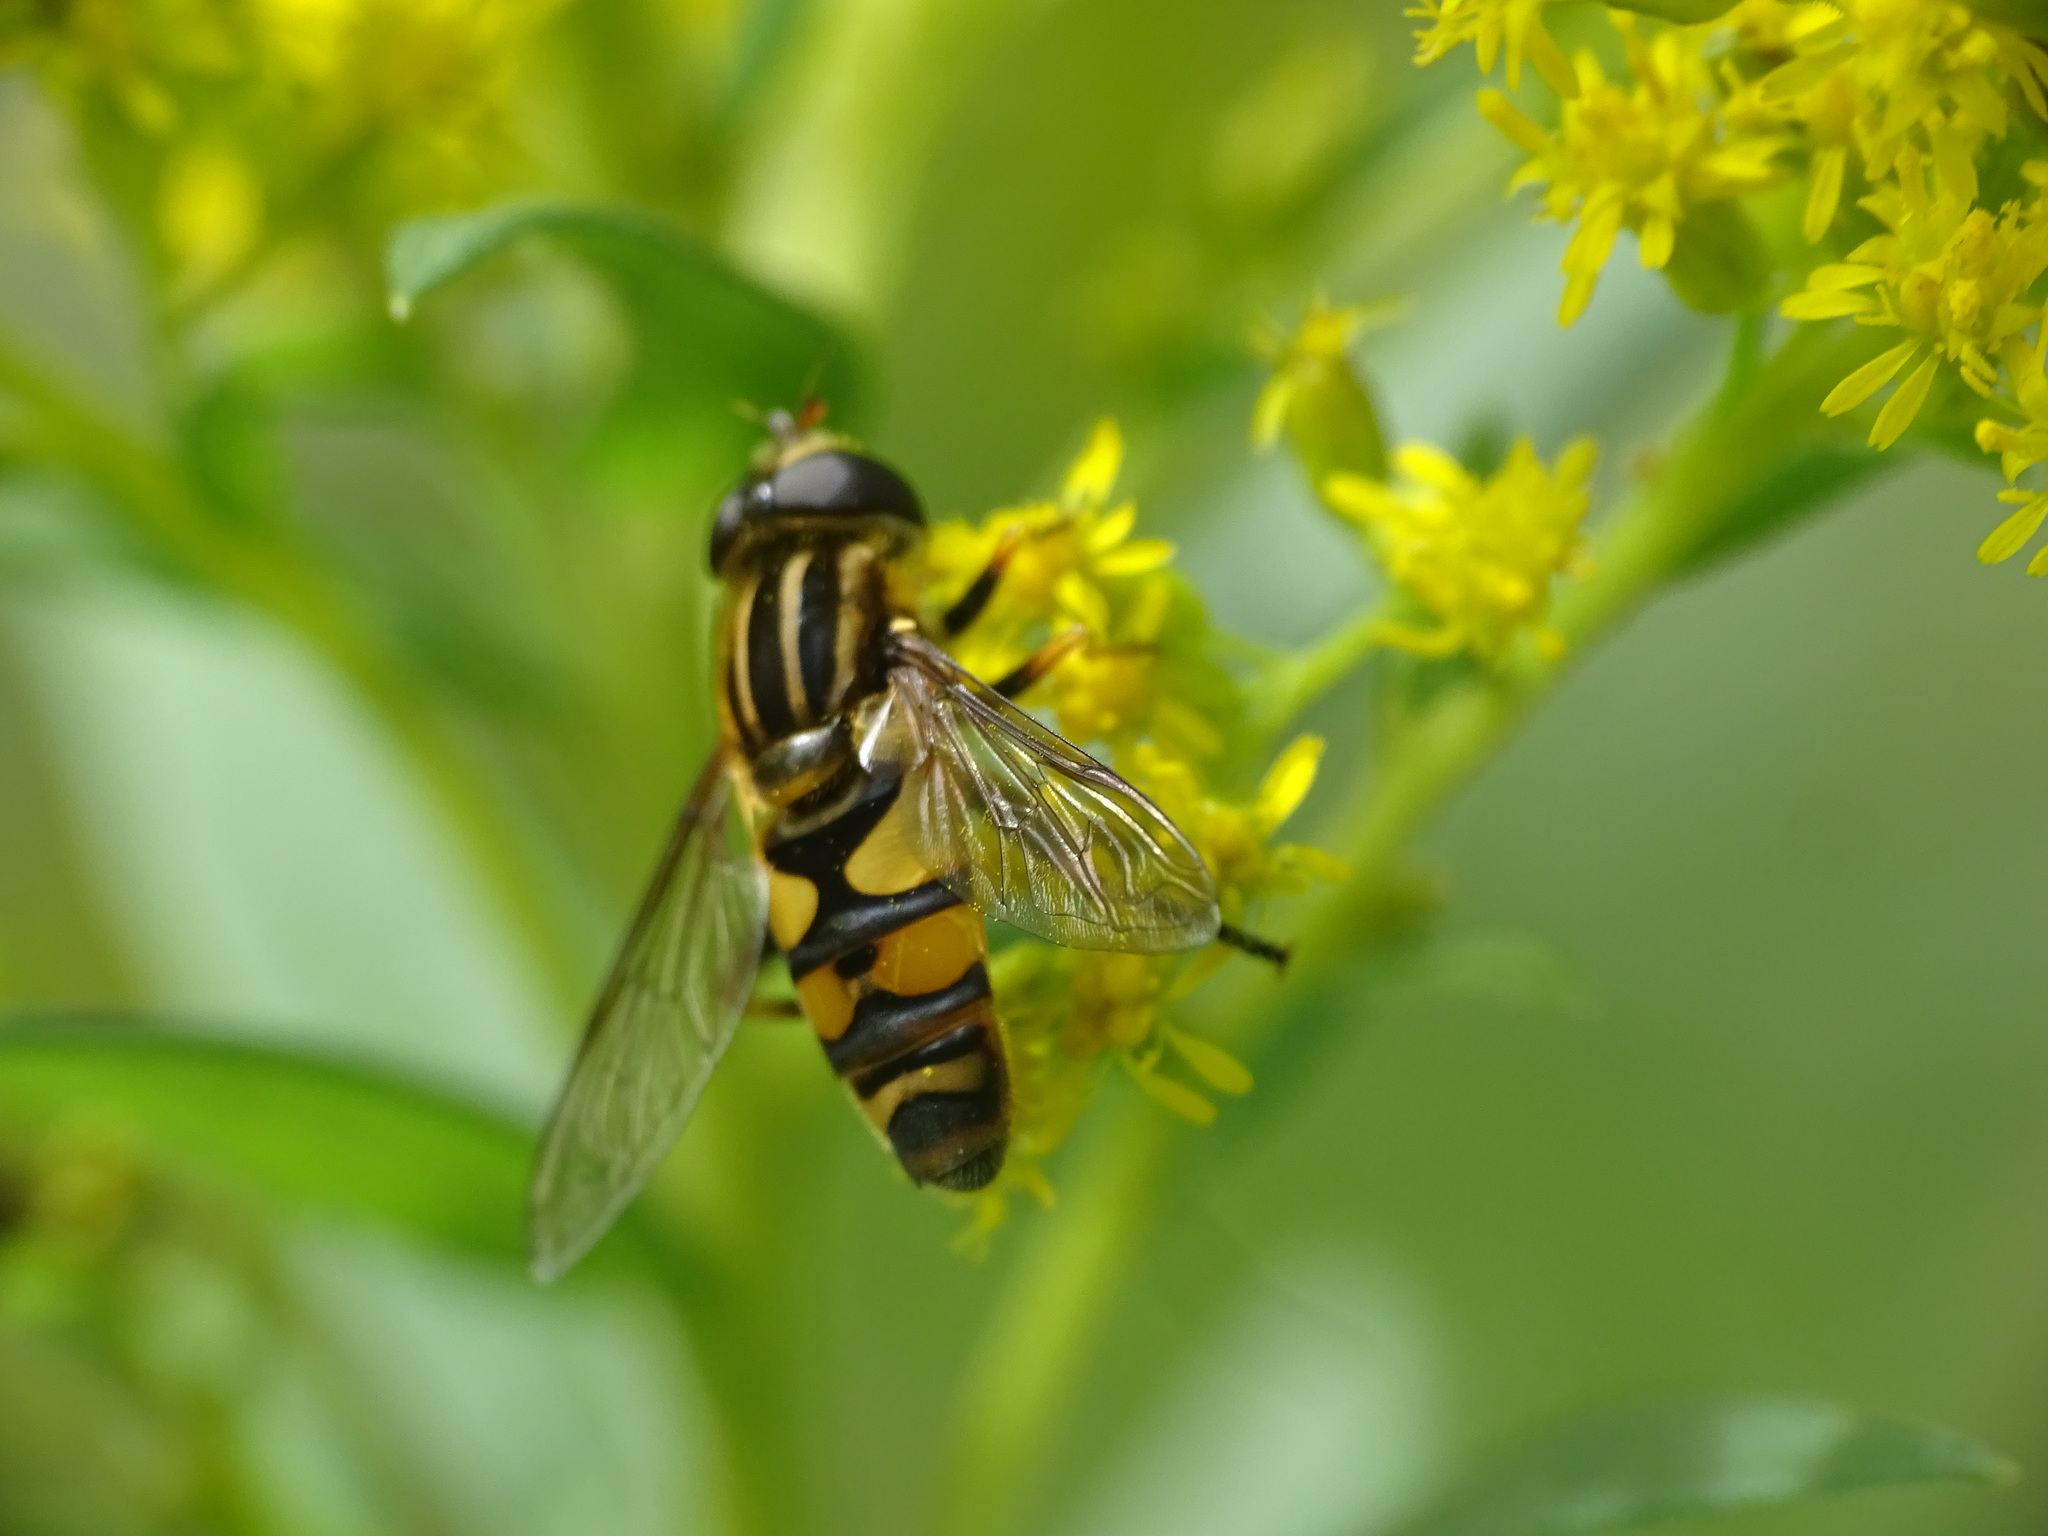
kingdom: Animalia
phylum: Arthropoda
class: Insecta
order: Diptera
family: Syrphidae
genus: Helophilus
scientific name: Helophilus fasciatus
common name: Narrow-headed marsh fly
